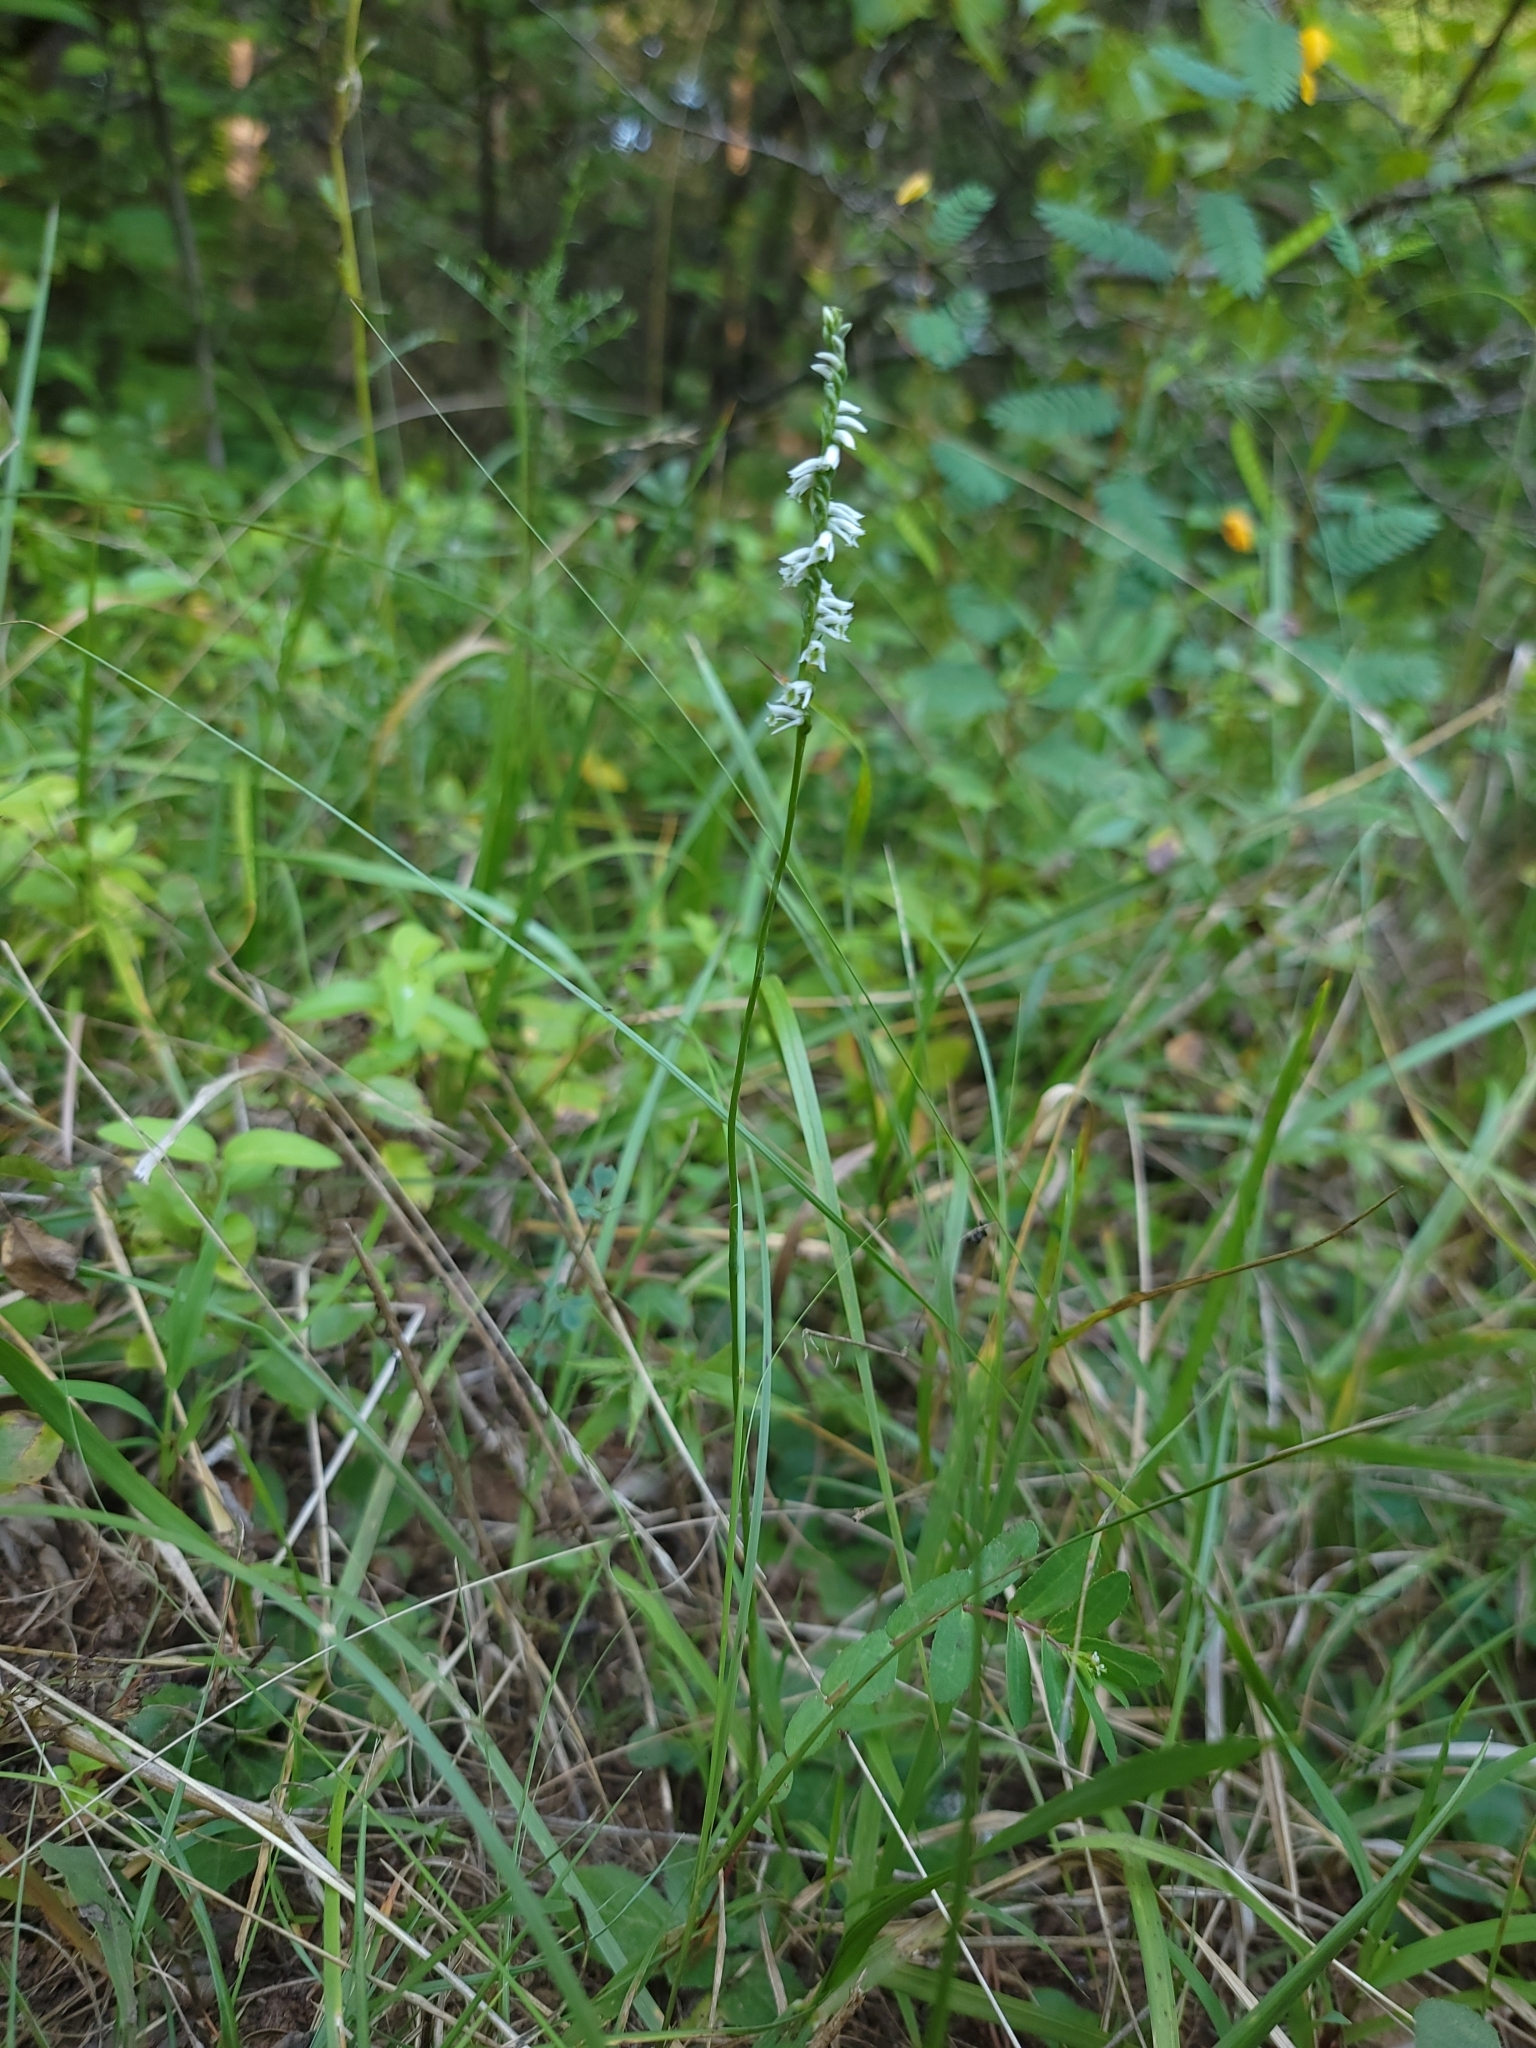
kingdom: Plantae
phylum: Tracheophyta
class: Liliopsida
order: Asparagales
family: Orchidaceae
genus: Spiranthes
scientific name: Spiranthes lacera
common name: Northern slender ladies'-tresses
